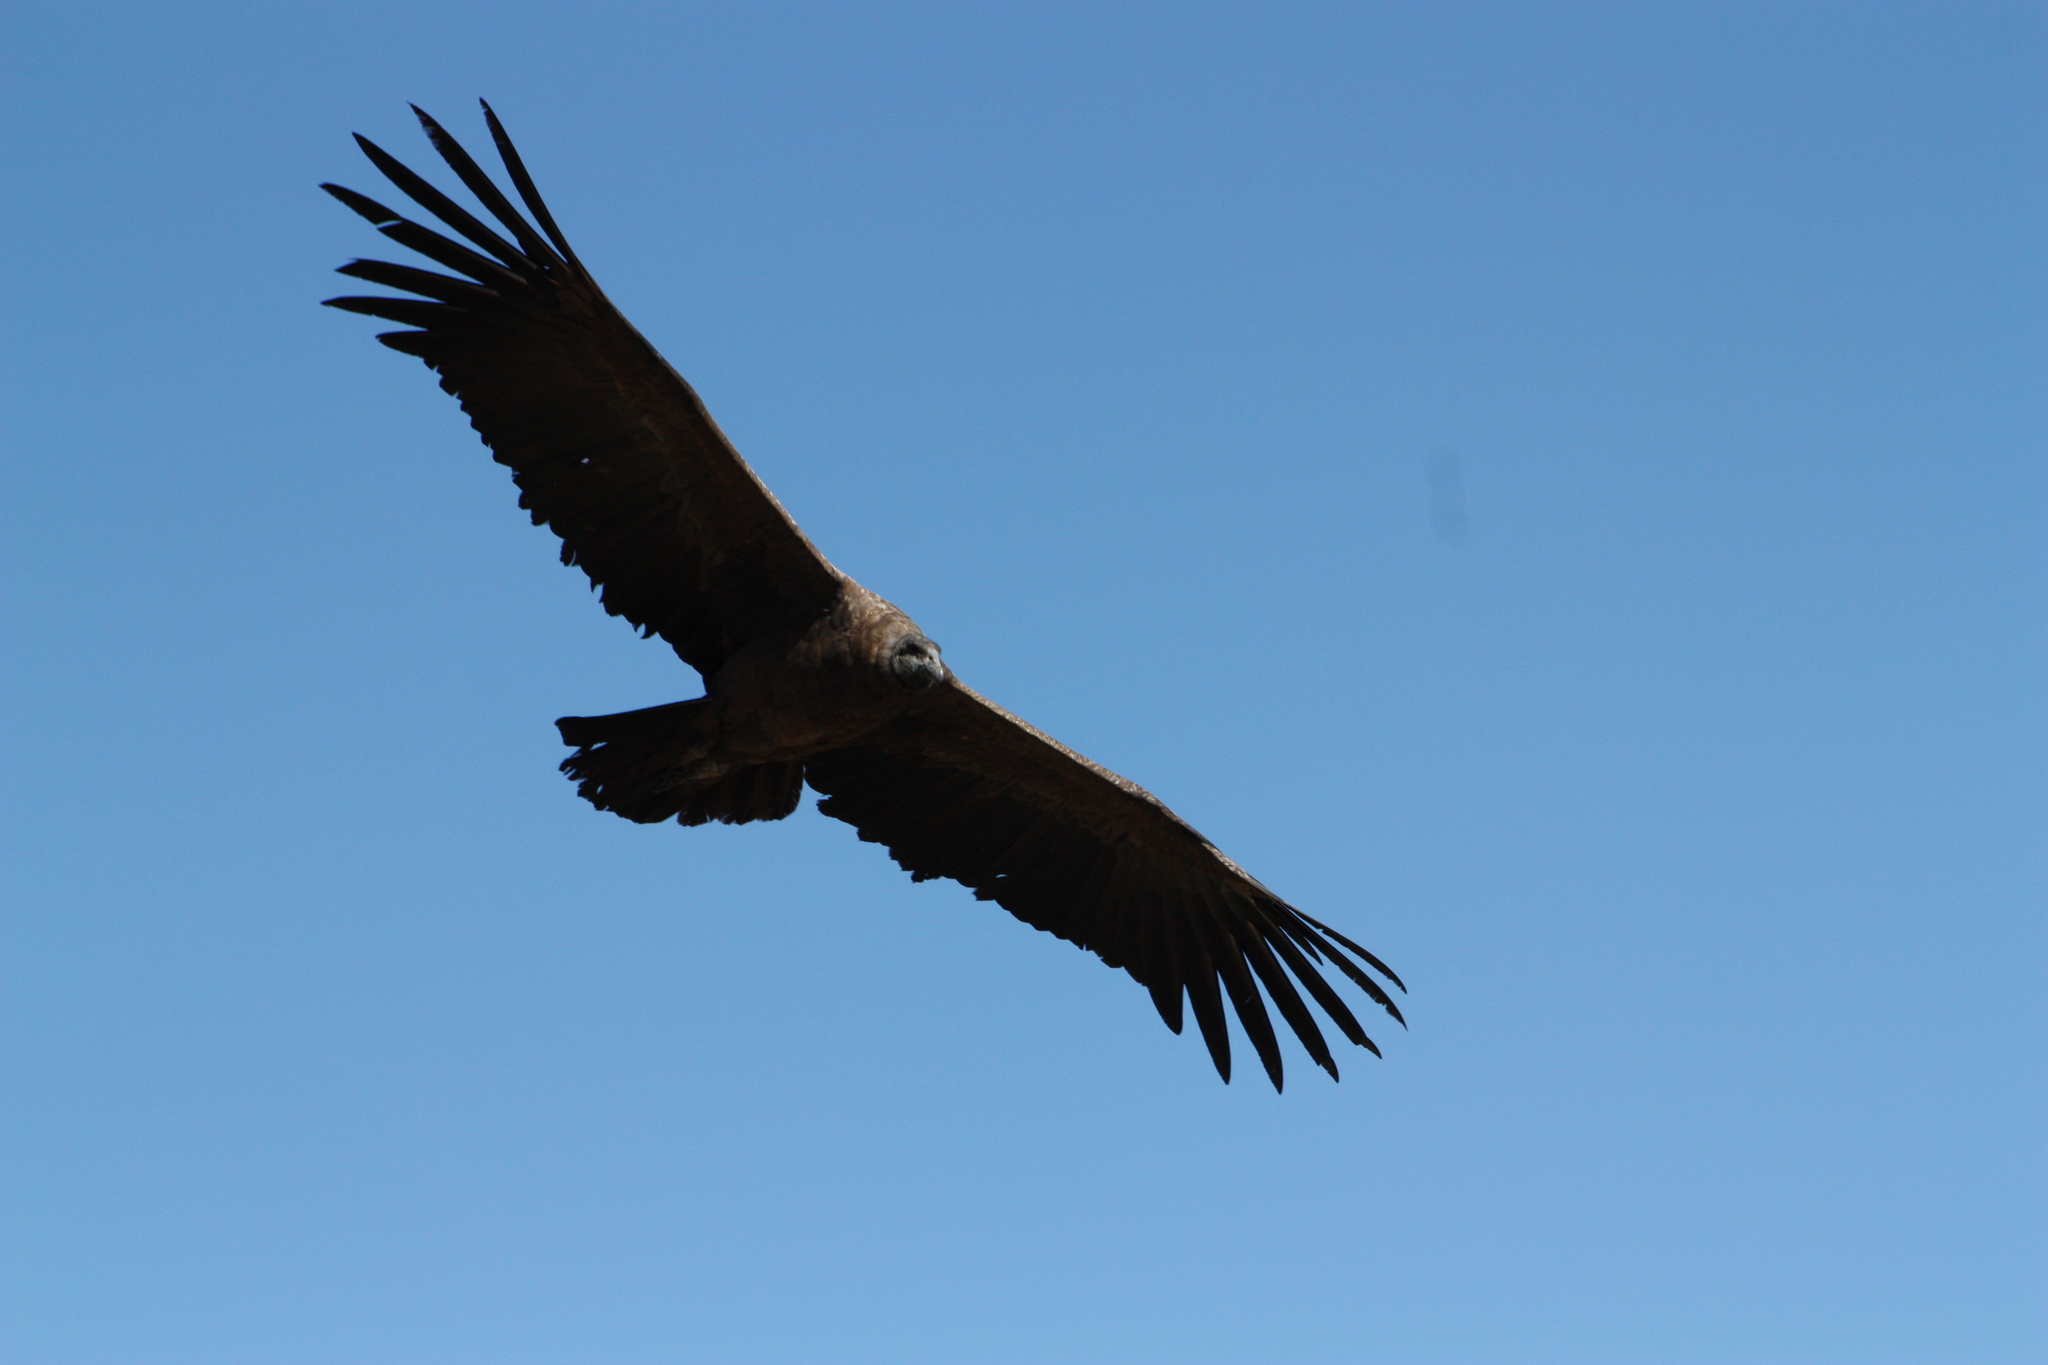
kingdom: Animalia
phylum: Chordata
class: Aves
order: Accipitriformes
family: Cathartidae
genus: Vultur
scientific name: Vultur gryphus
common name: Andean condor
